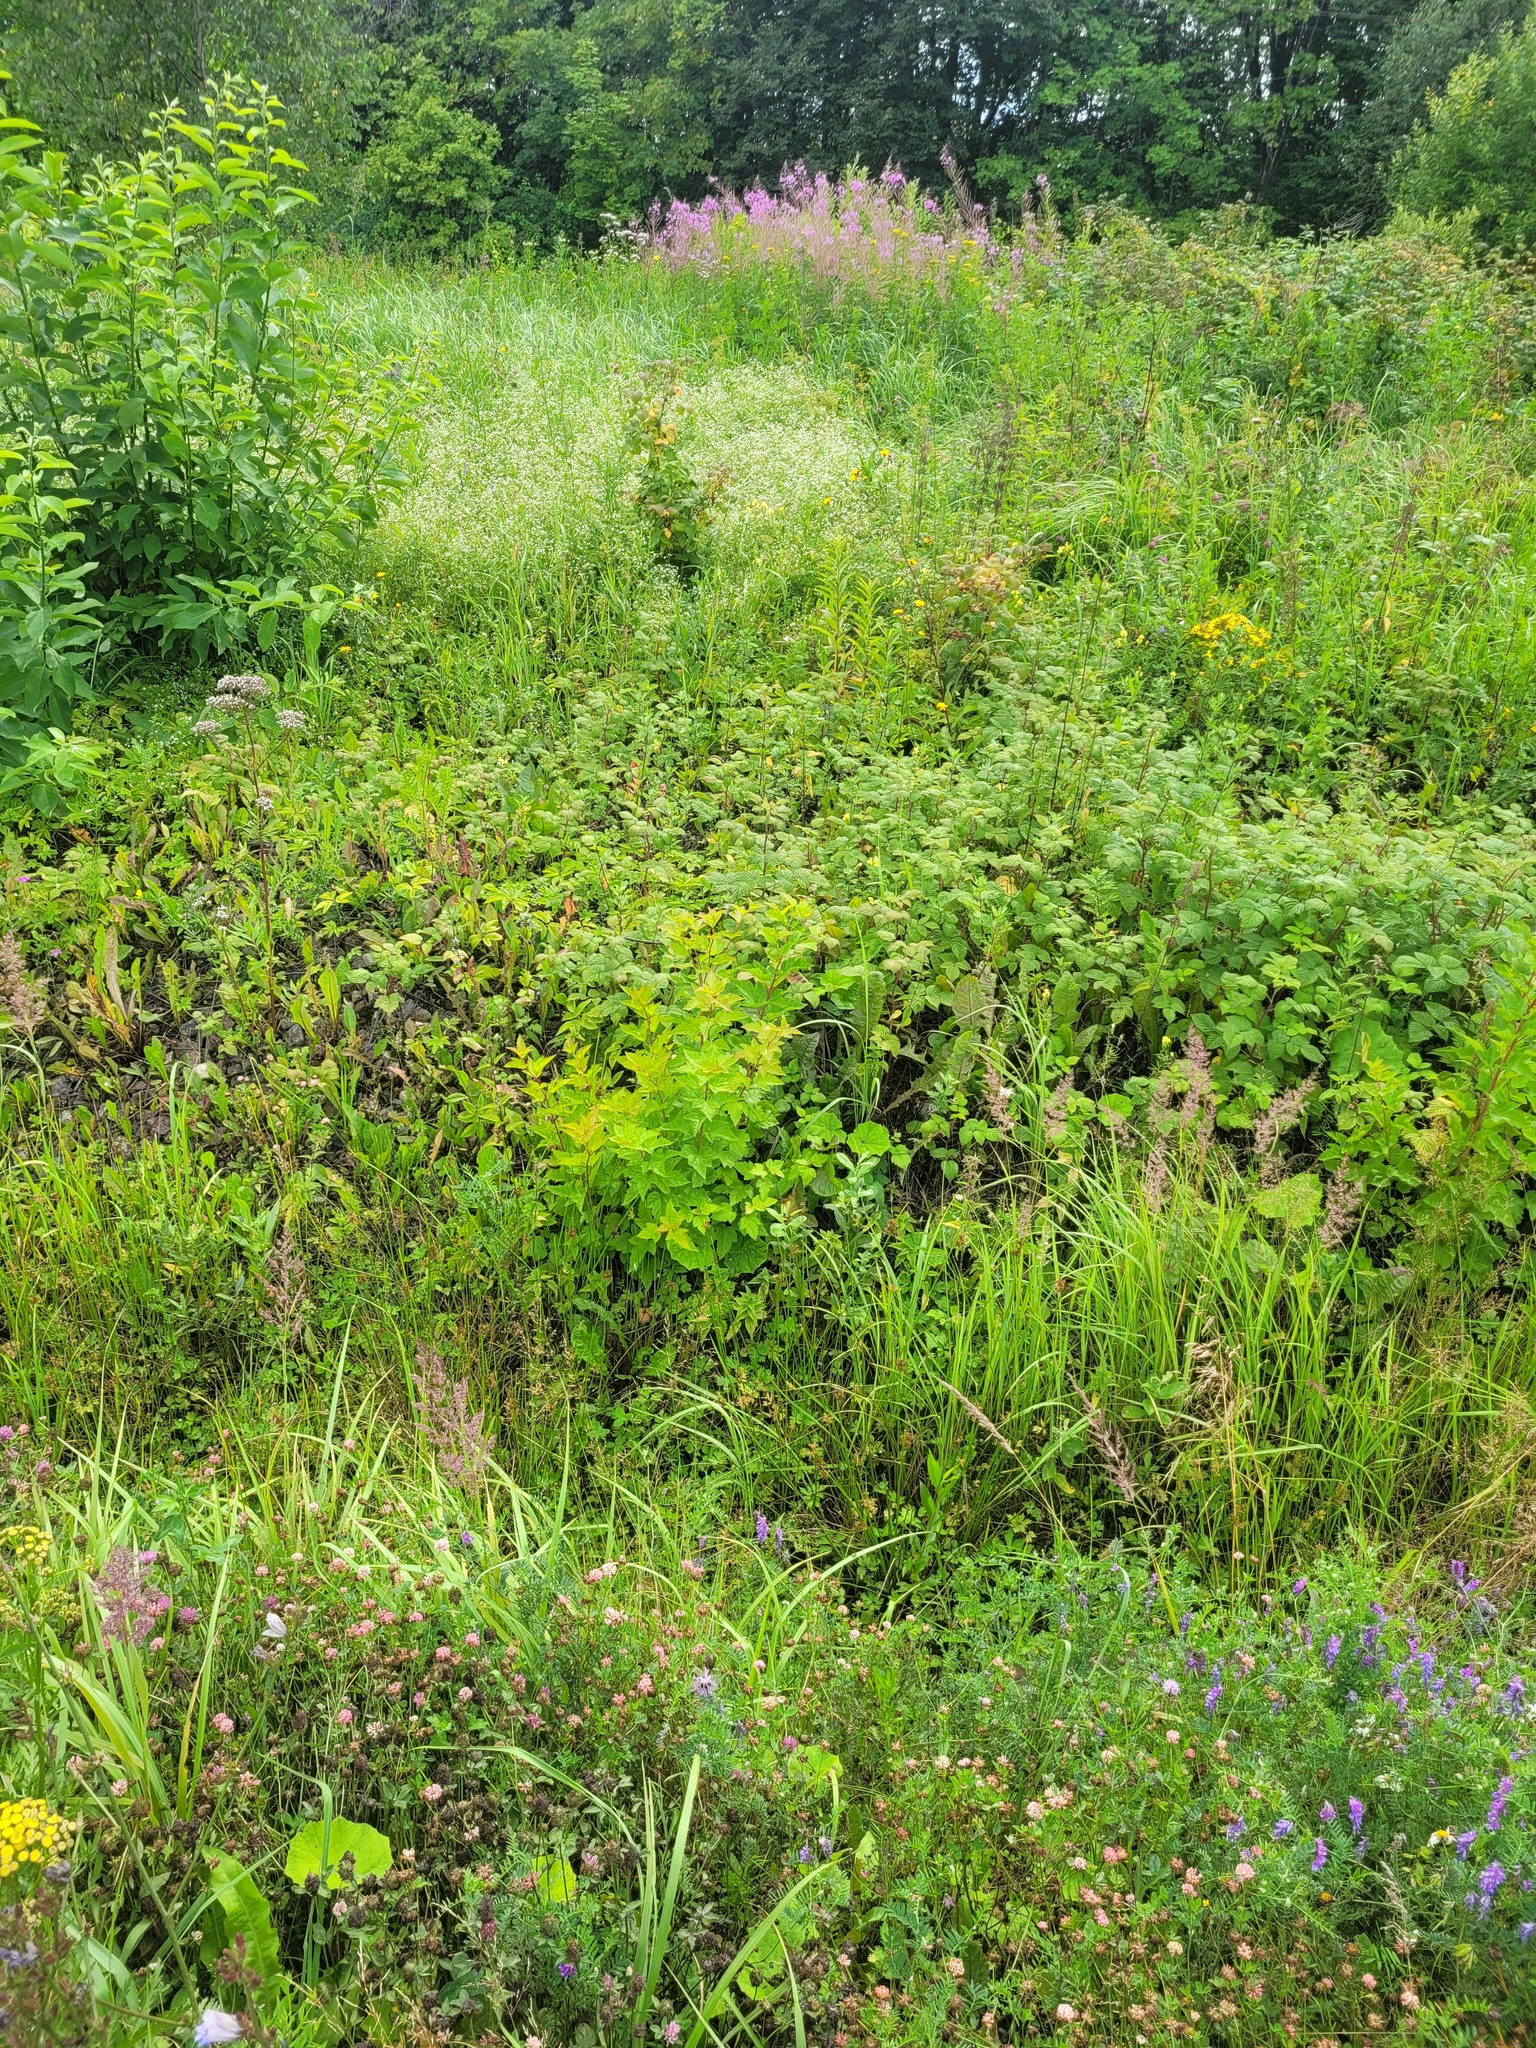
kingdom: Plantae
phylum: Tracheophyta
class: Magnoliopsida
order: Rosales
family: Rosaceae
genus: Physocarpus
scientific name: Physocarpus opulifolius
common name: Ninebark
